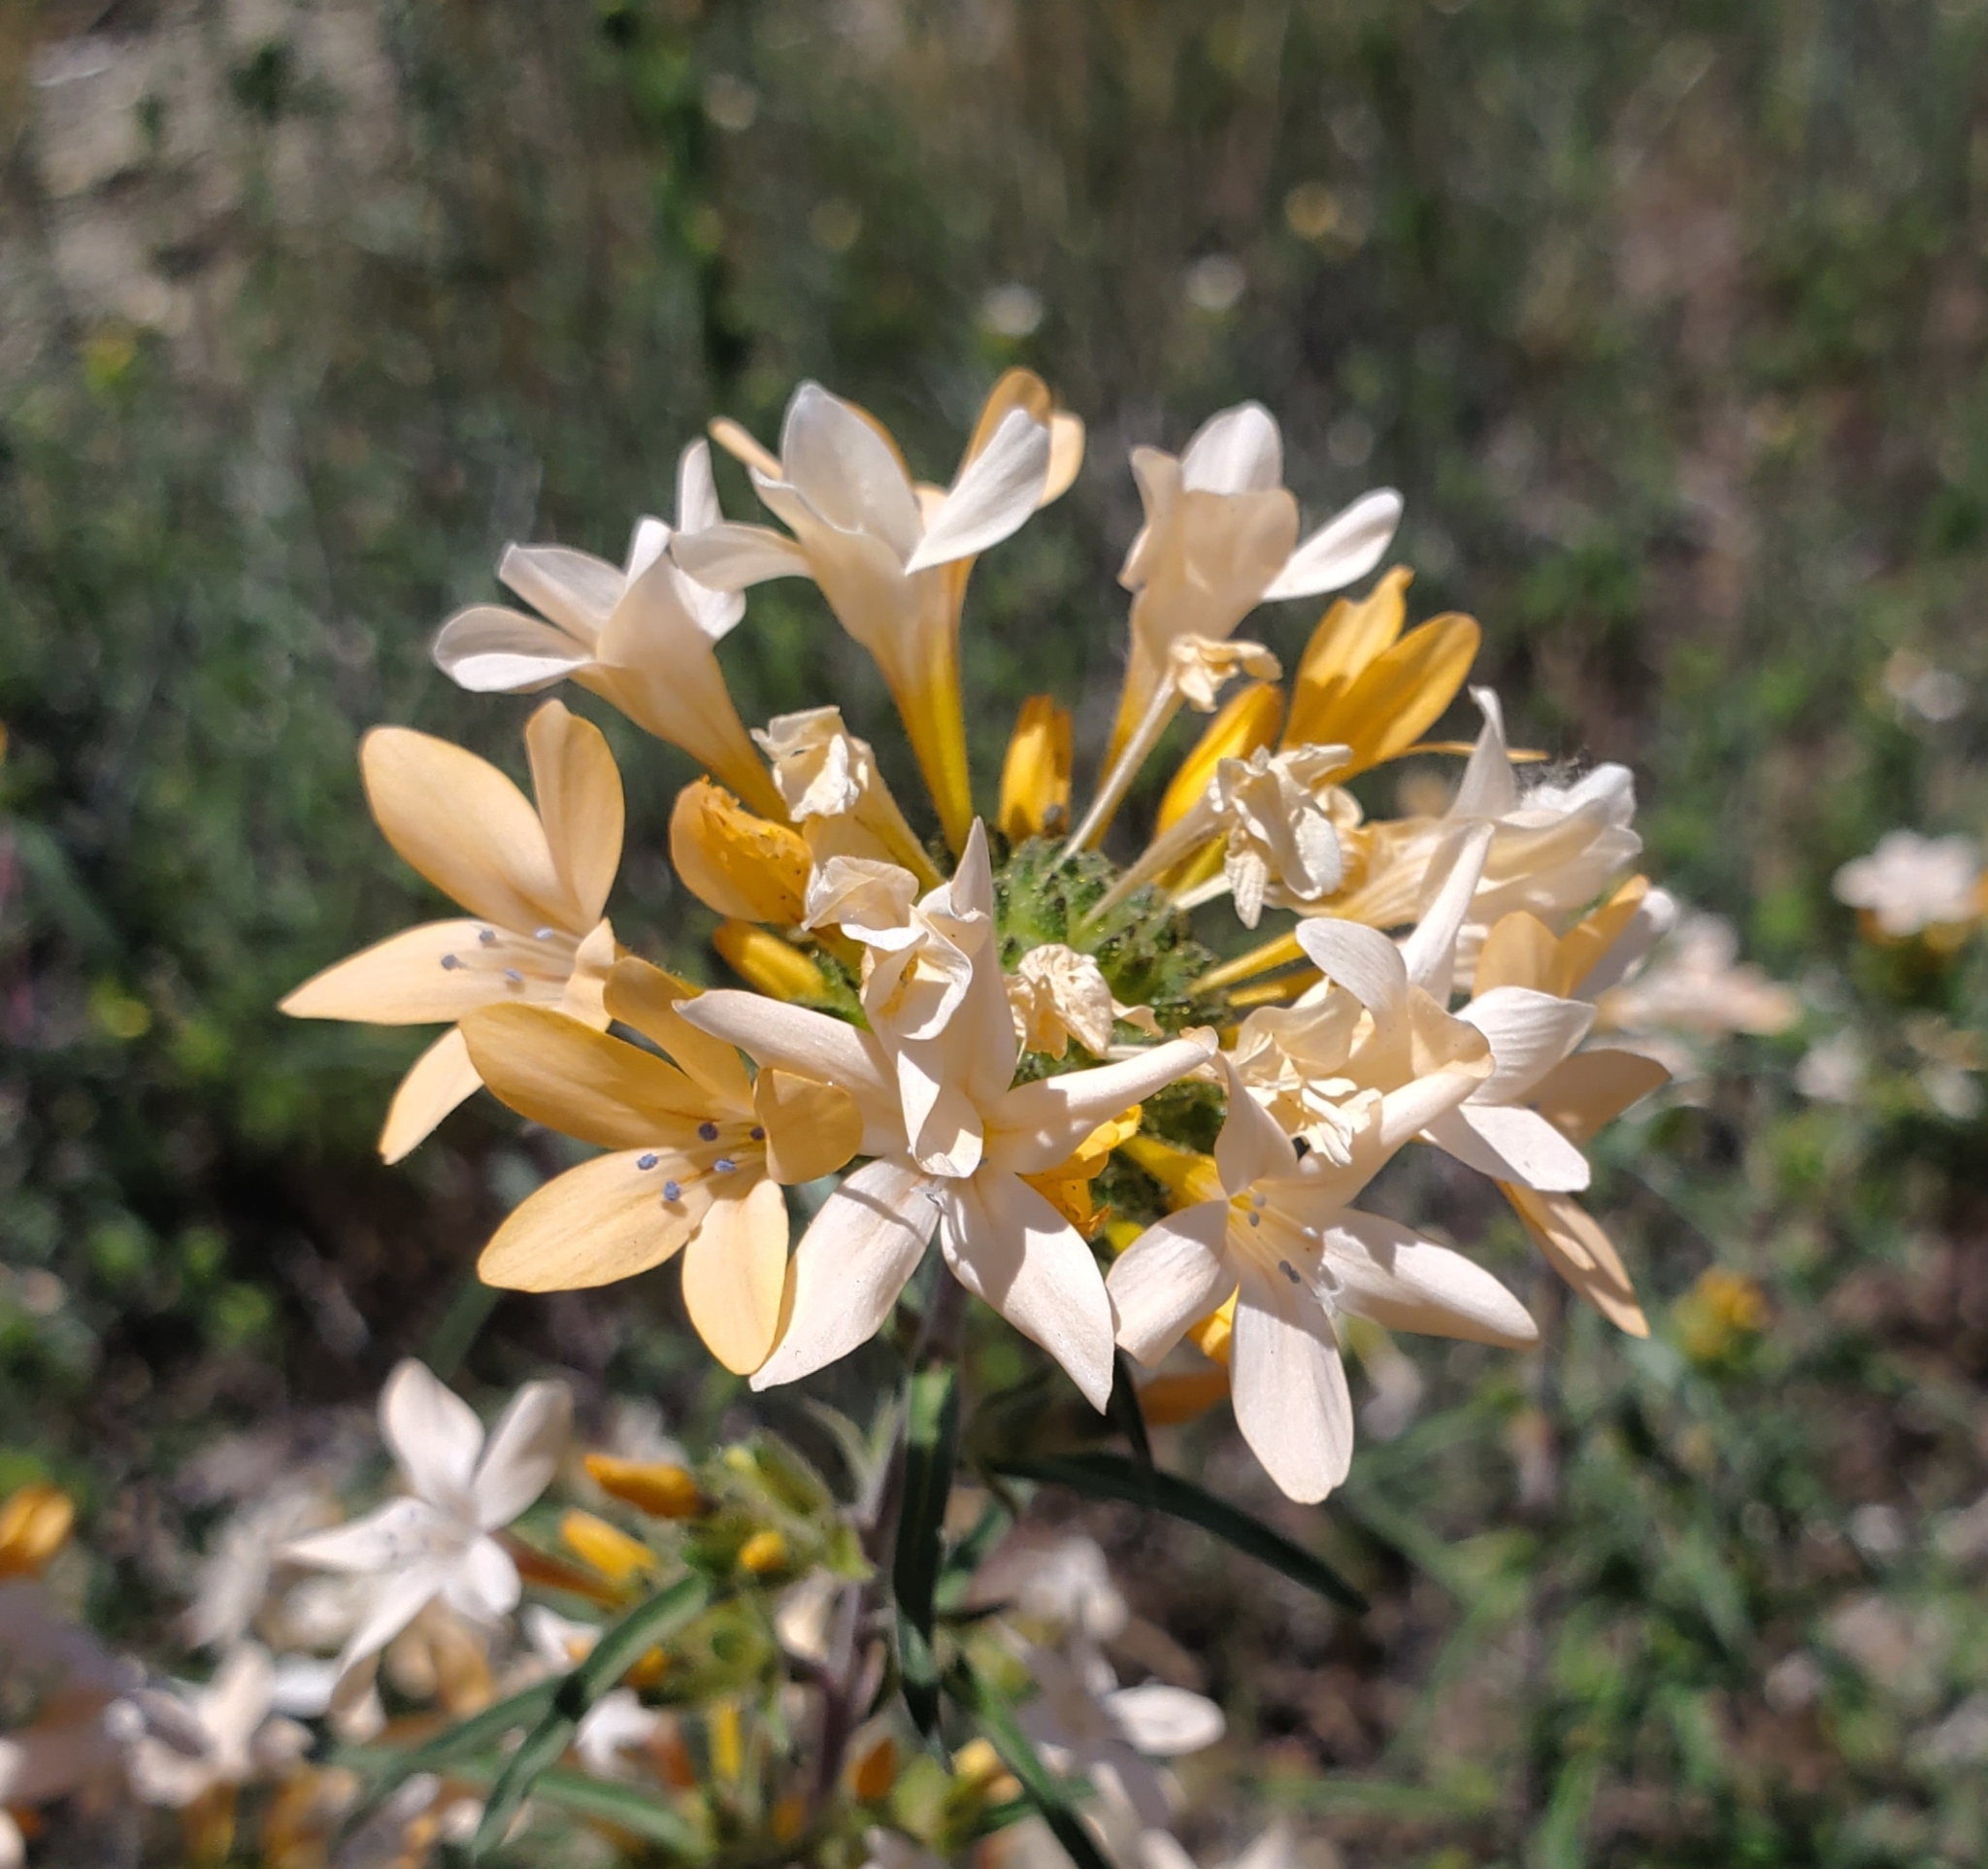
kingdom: Plantae
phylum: Tracheophyta
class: Magnoliopsida
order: Ericales
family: Polemoniaceae
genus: Collomia
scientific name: Collomia grandiflora
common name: California strawflower
